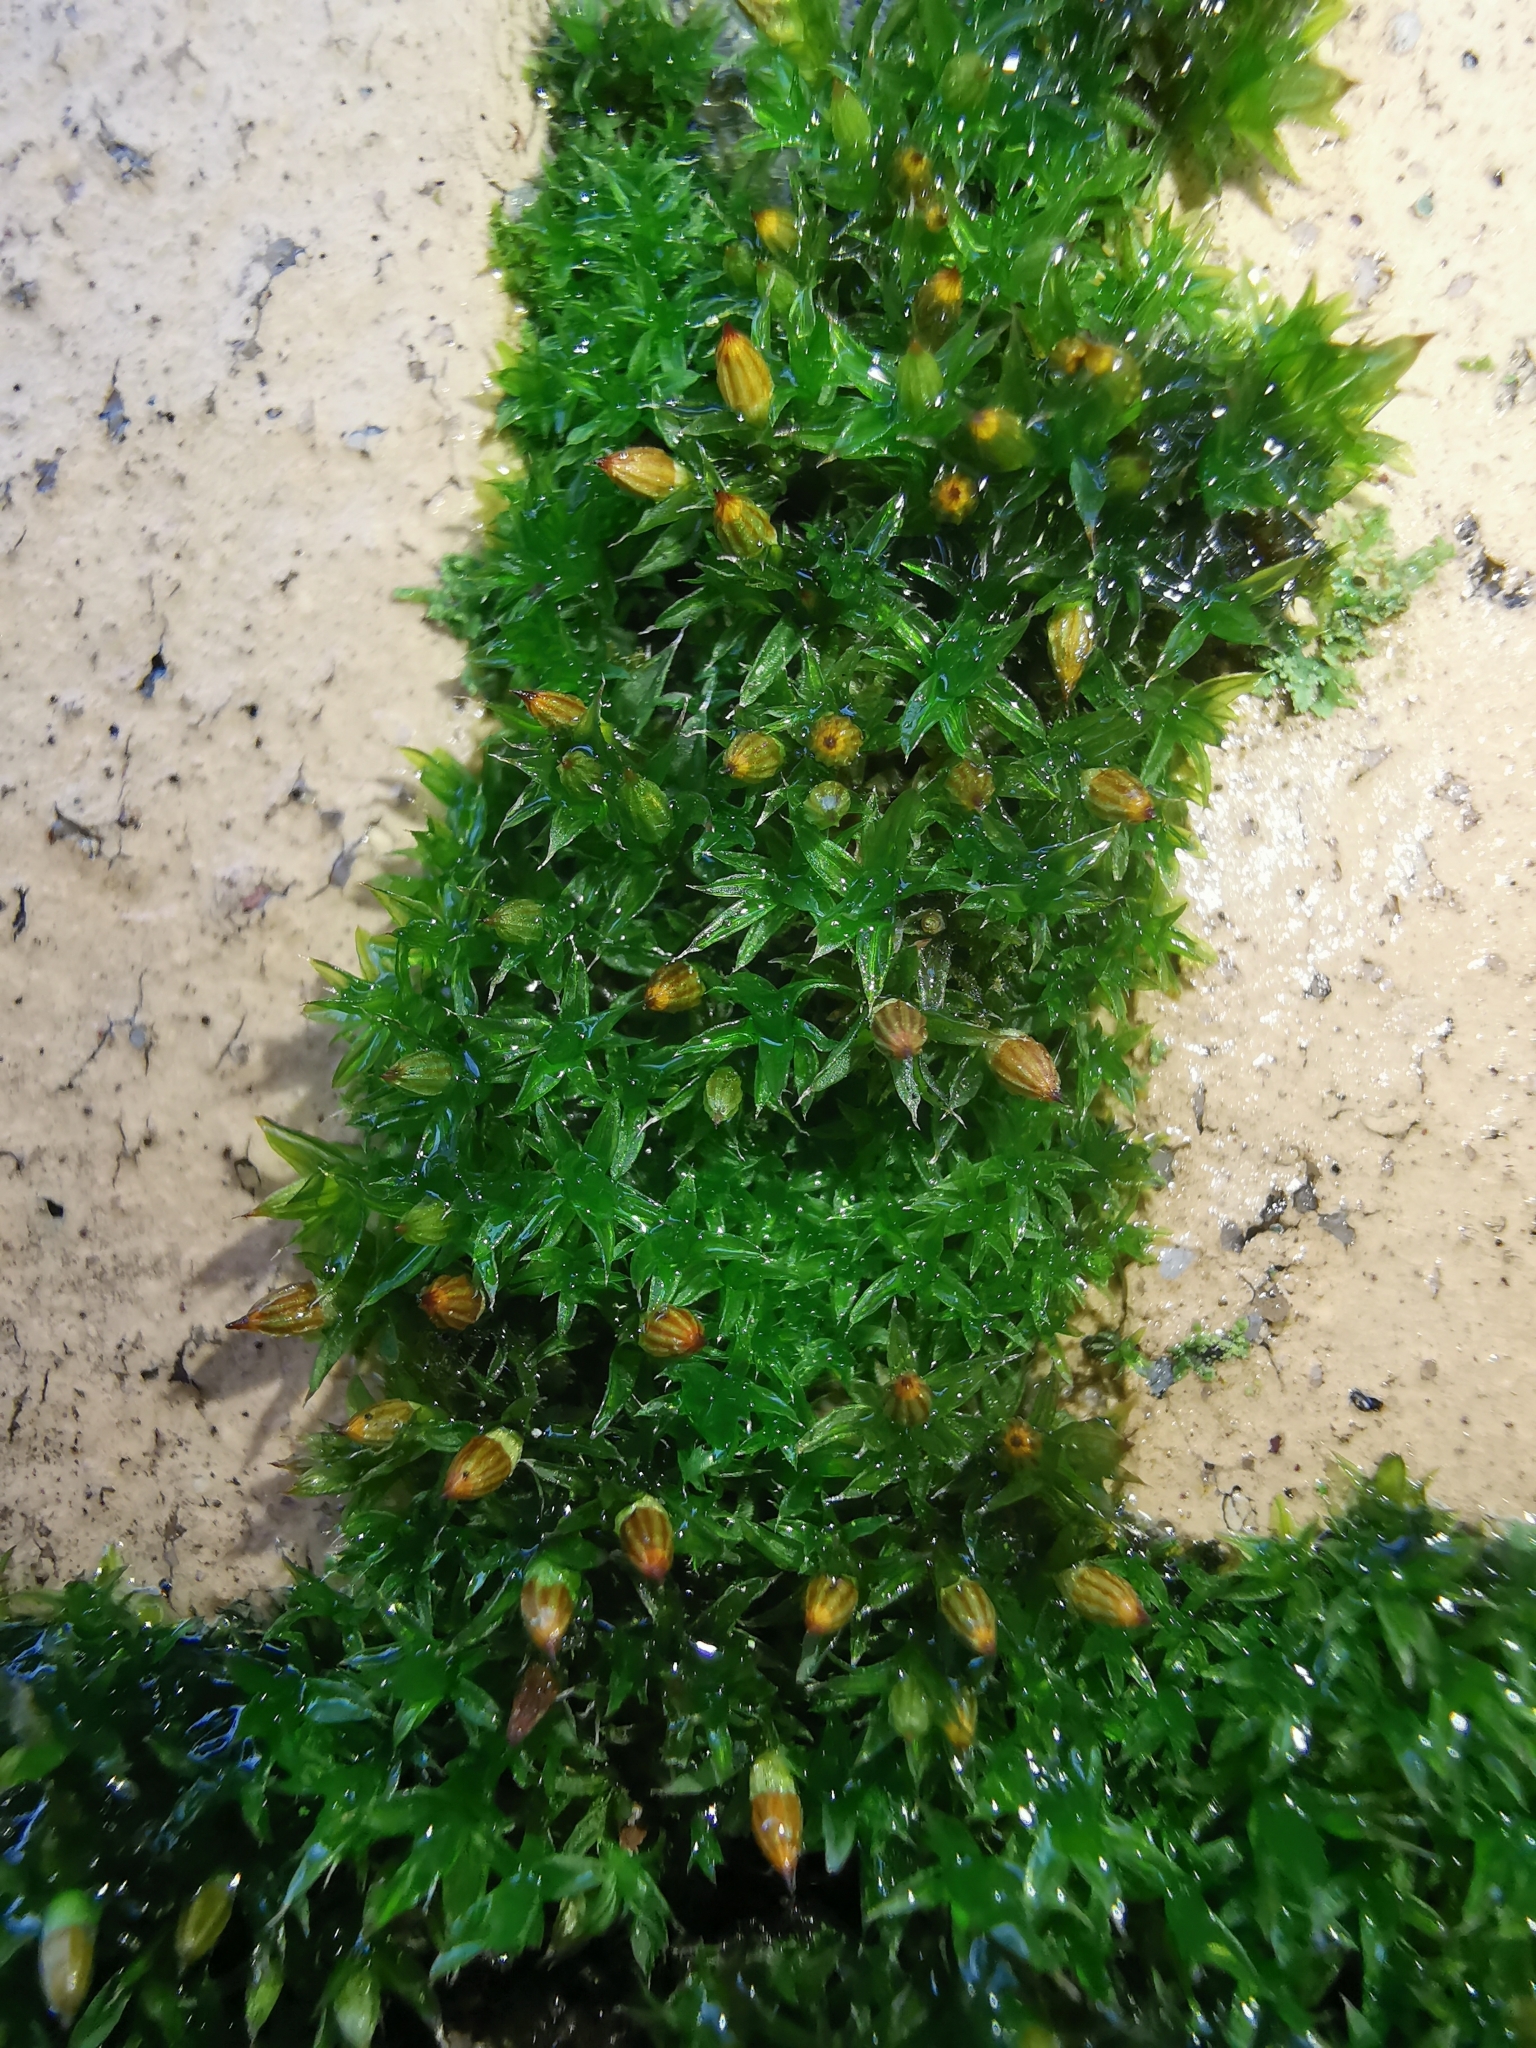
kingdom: Plantae
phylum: Bryophyta
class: Bryopsida
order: Orthotrichales
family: Orthotrichaceae
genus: Orthotrichum
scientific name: Orthotrichum diaphanum
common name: White-tipped bristle-moss
